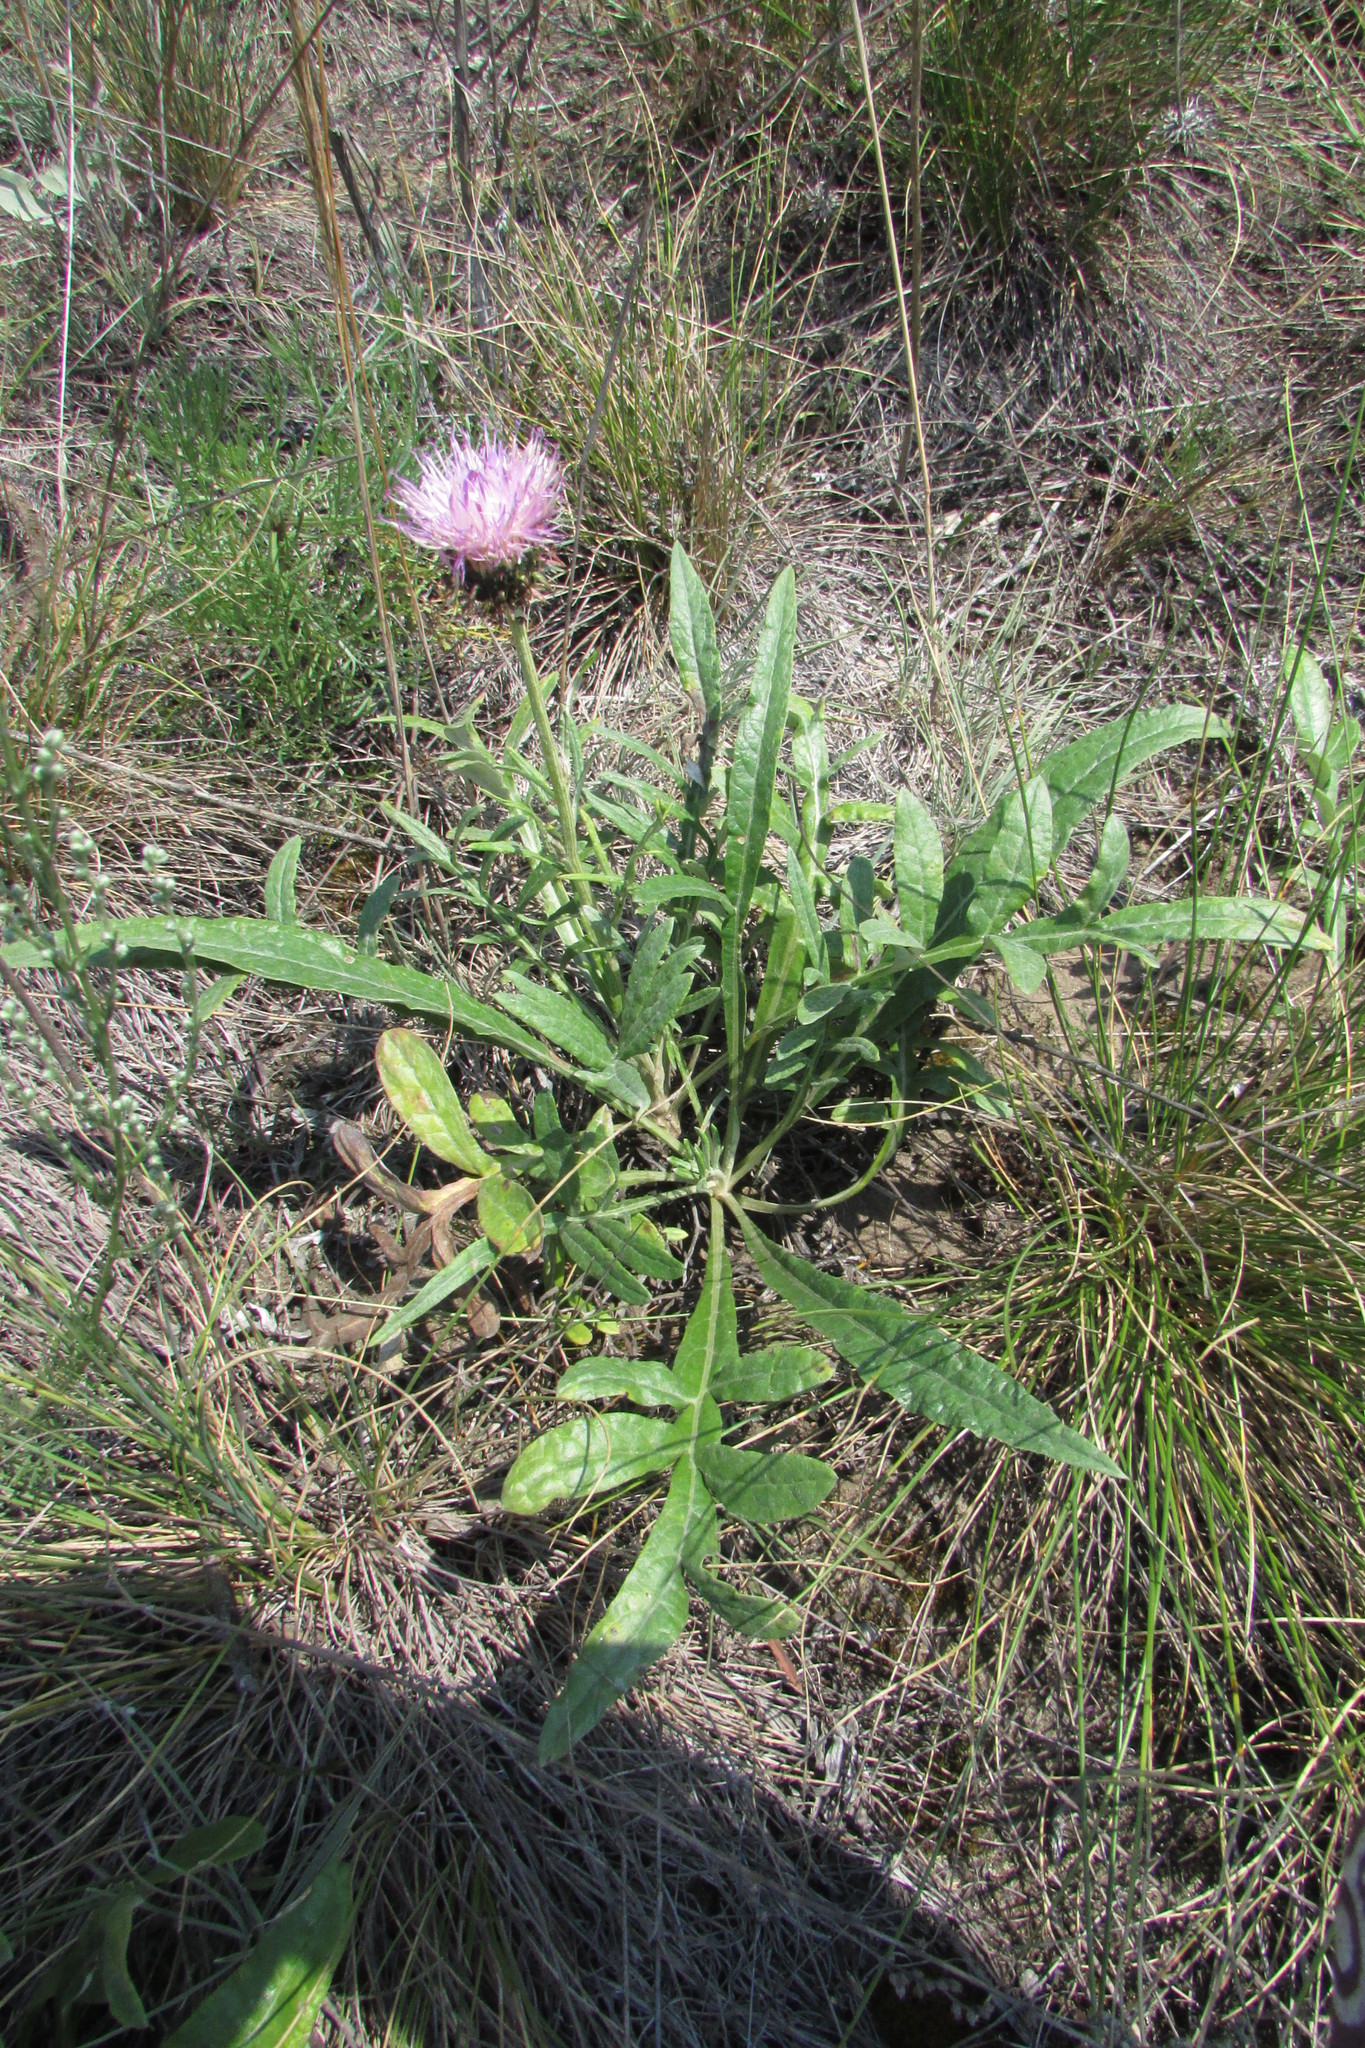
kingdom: Plantae
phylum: Tracheophyta
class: Magnoliopsida
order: Asterales
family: Asteraceae
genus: Jurinea
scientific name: Jurinea cyanoides
